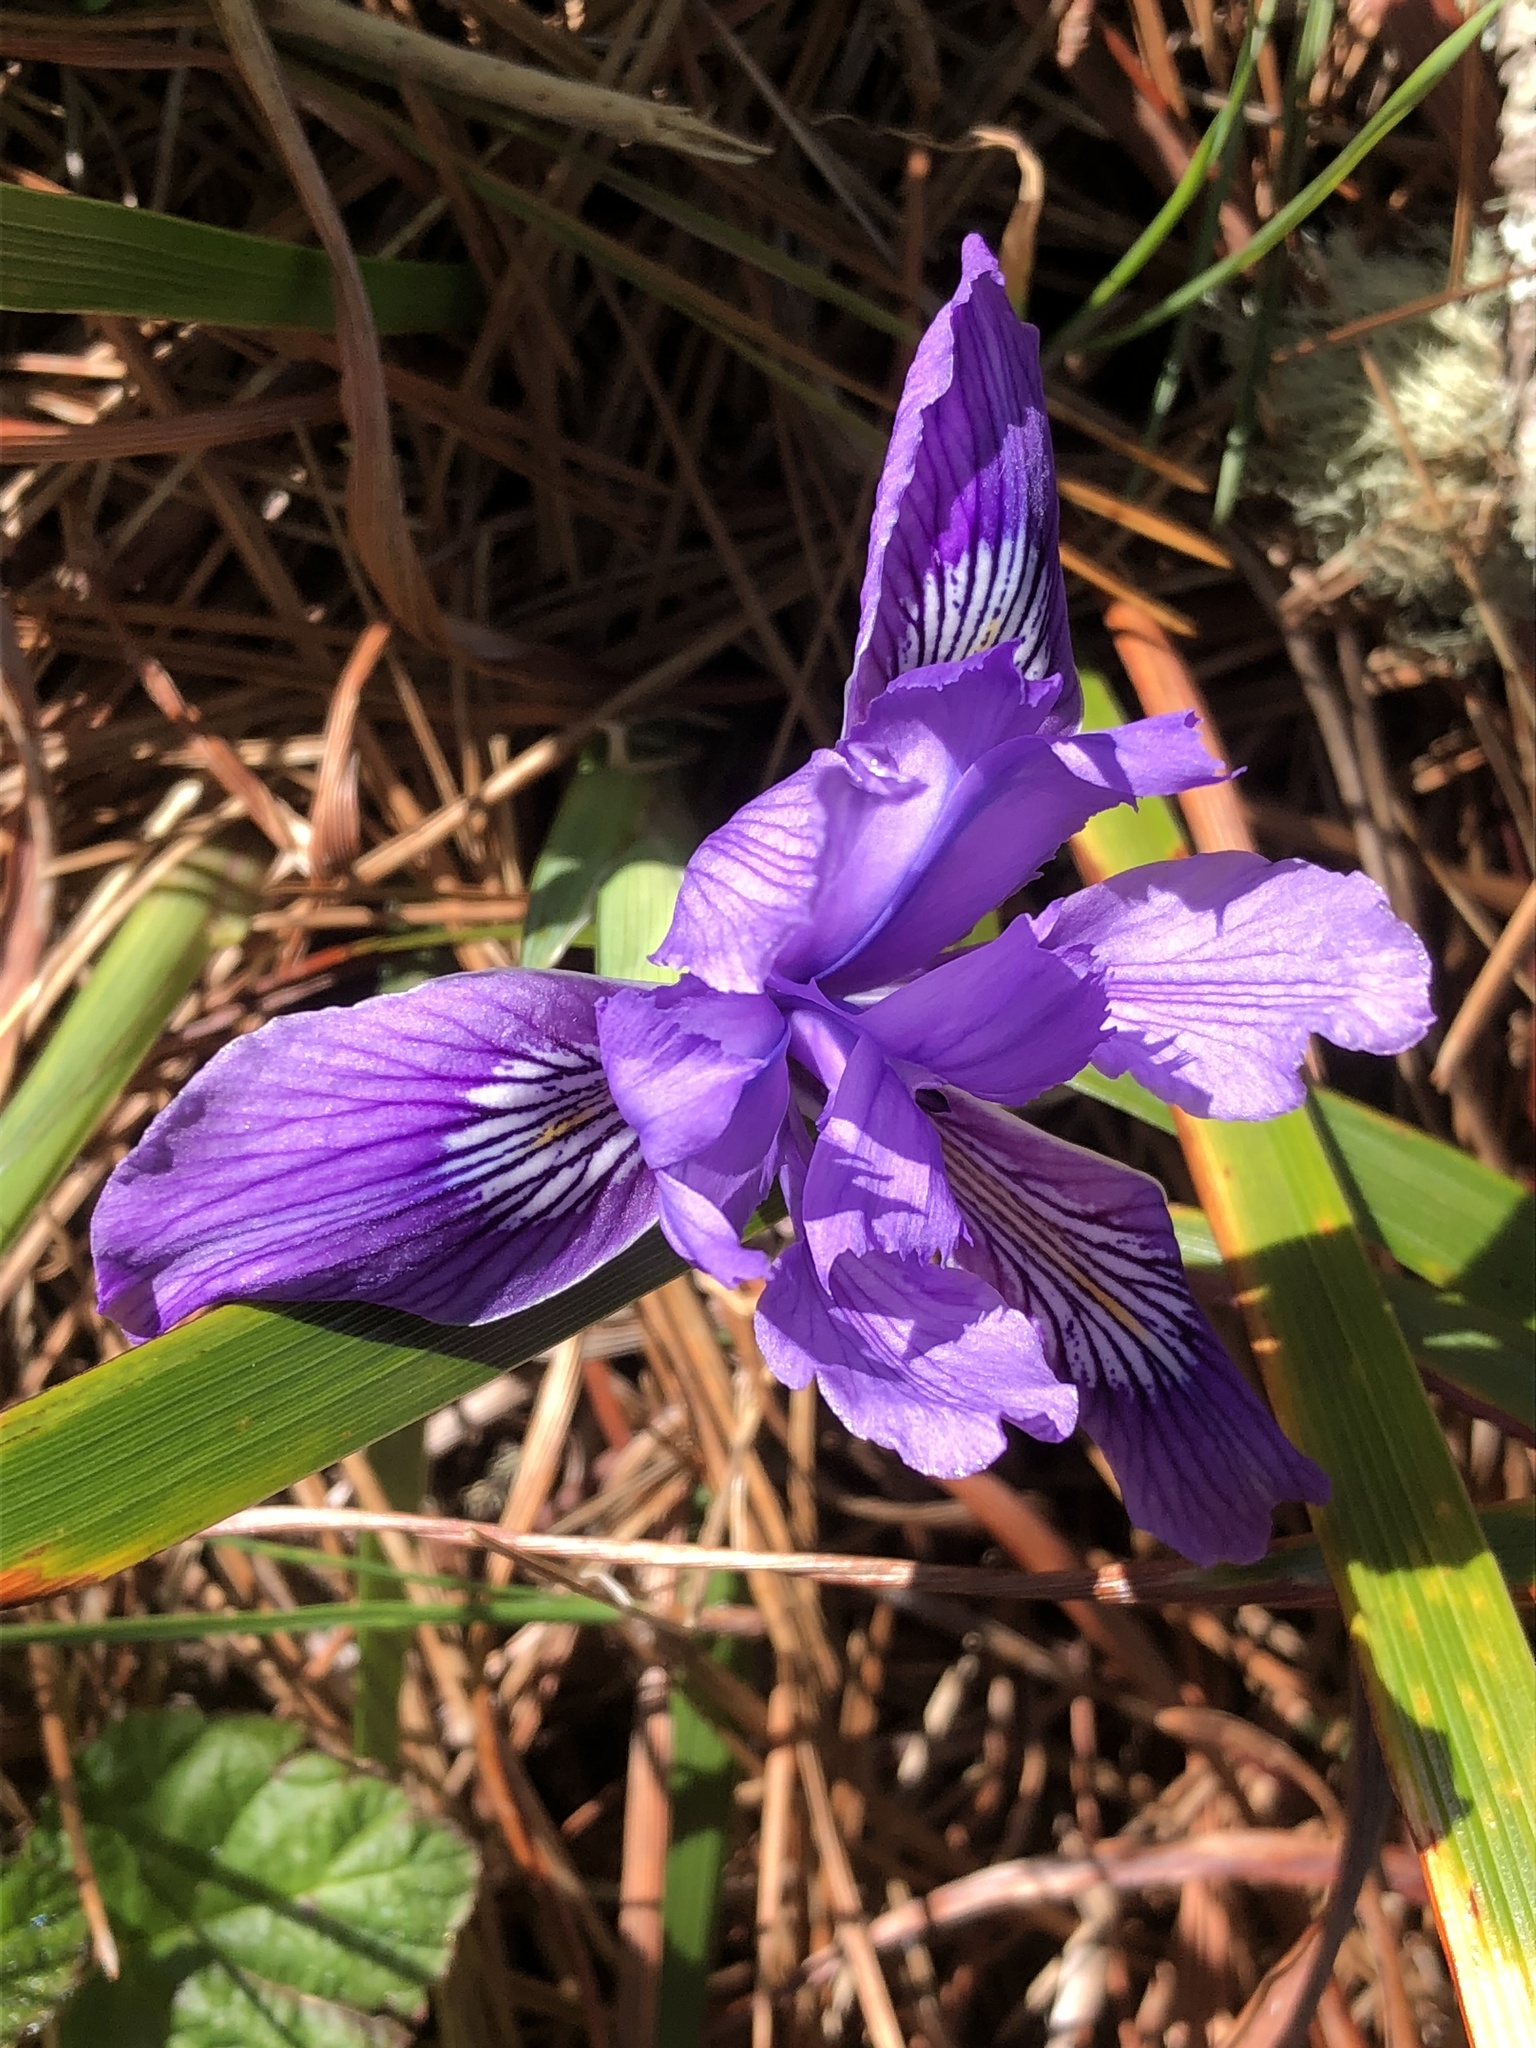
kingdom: Plantae
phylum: Tracheophyta
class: Liliopsida
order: Asparagales
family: Iridaceae
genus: Iris
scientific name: Iris douglasiana
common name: Marin iris
